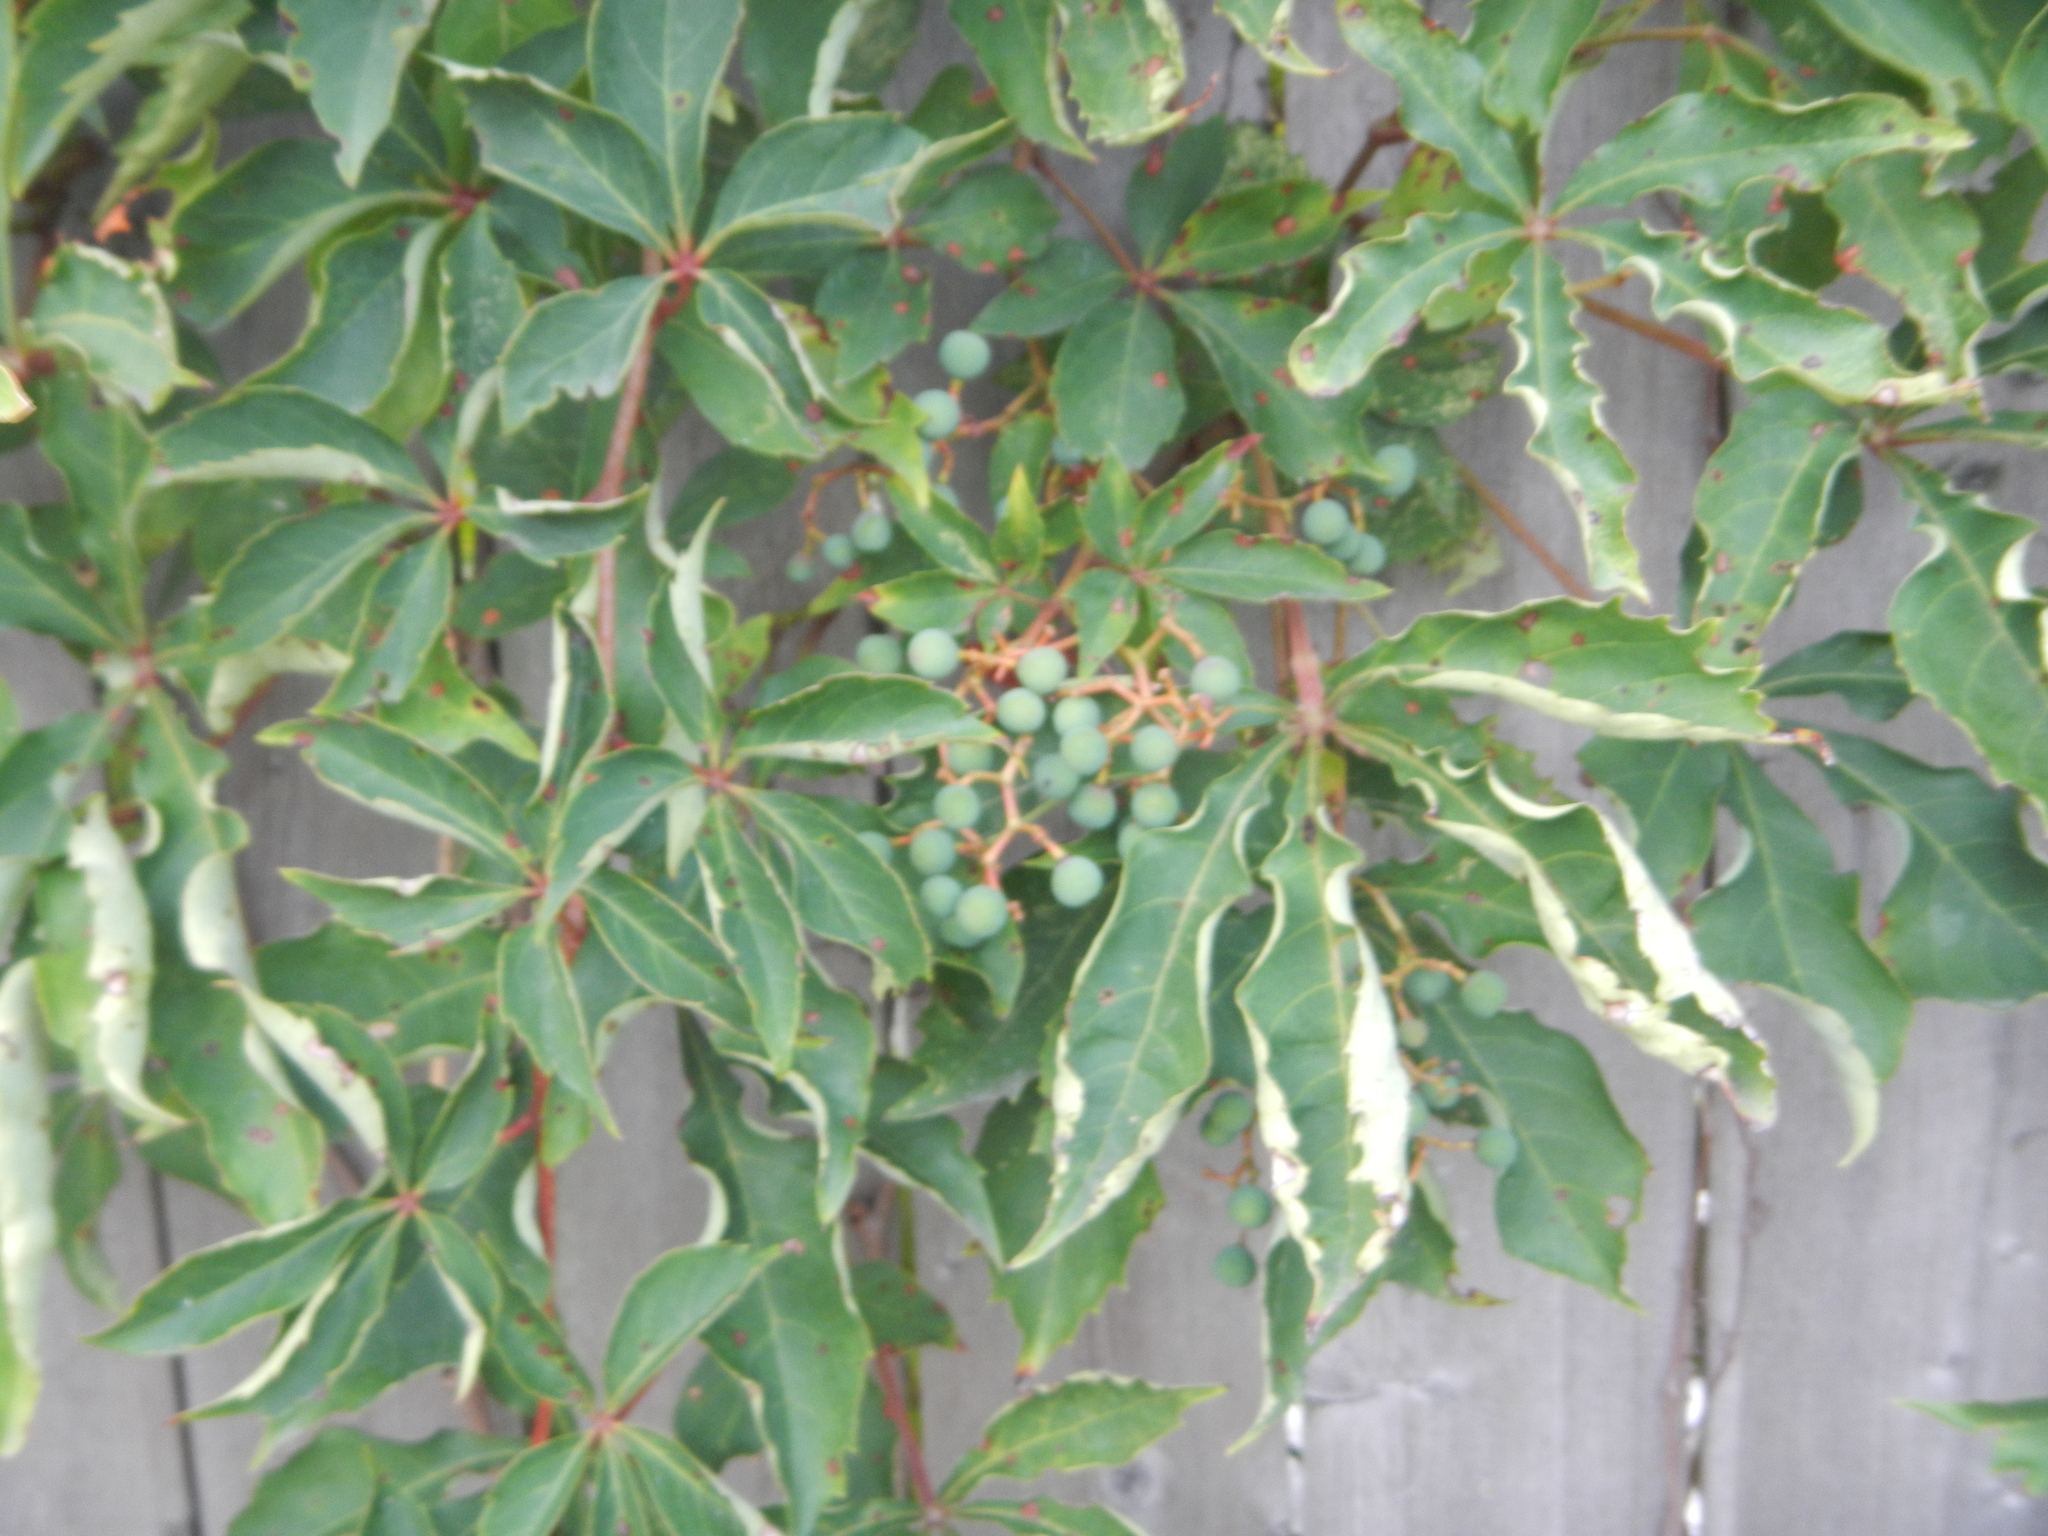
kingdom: Plantae
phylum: Tracheophyta
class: Magnoliopsida
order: Vitales
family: Vitaceae
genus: Parthenocissus
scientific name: Parthenocissus quinquefolia
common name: Virginia-creeper
